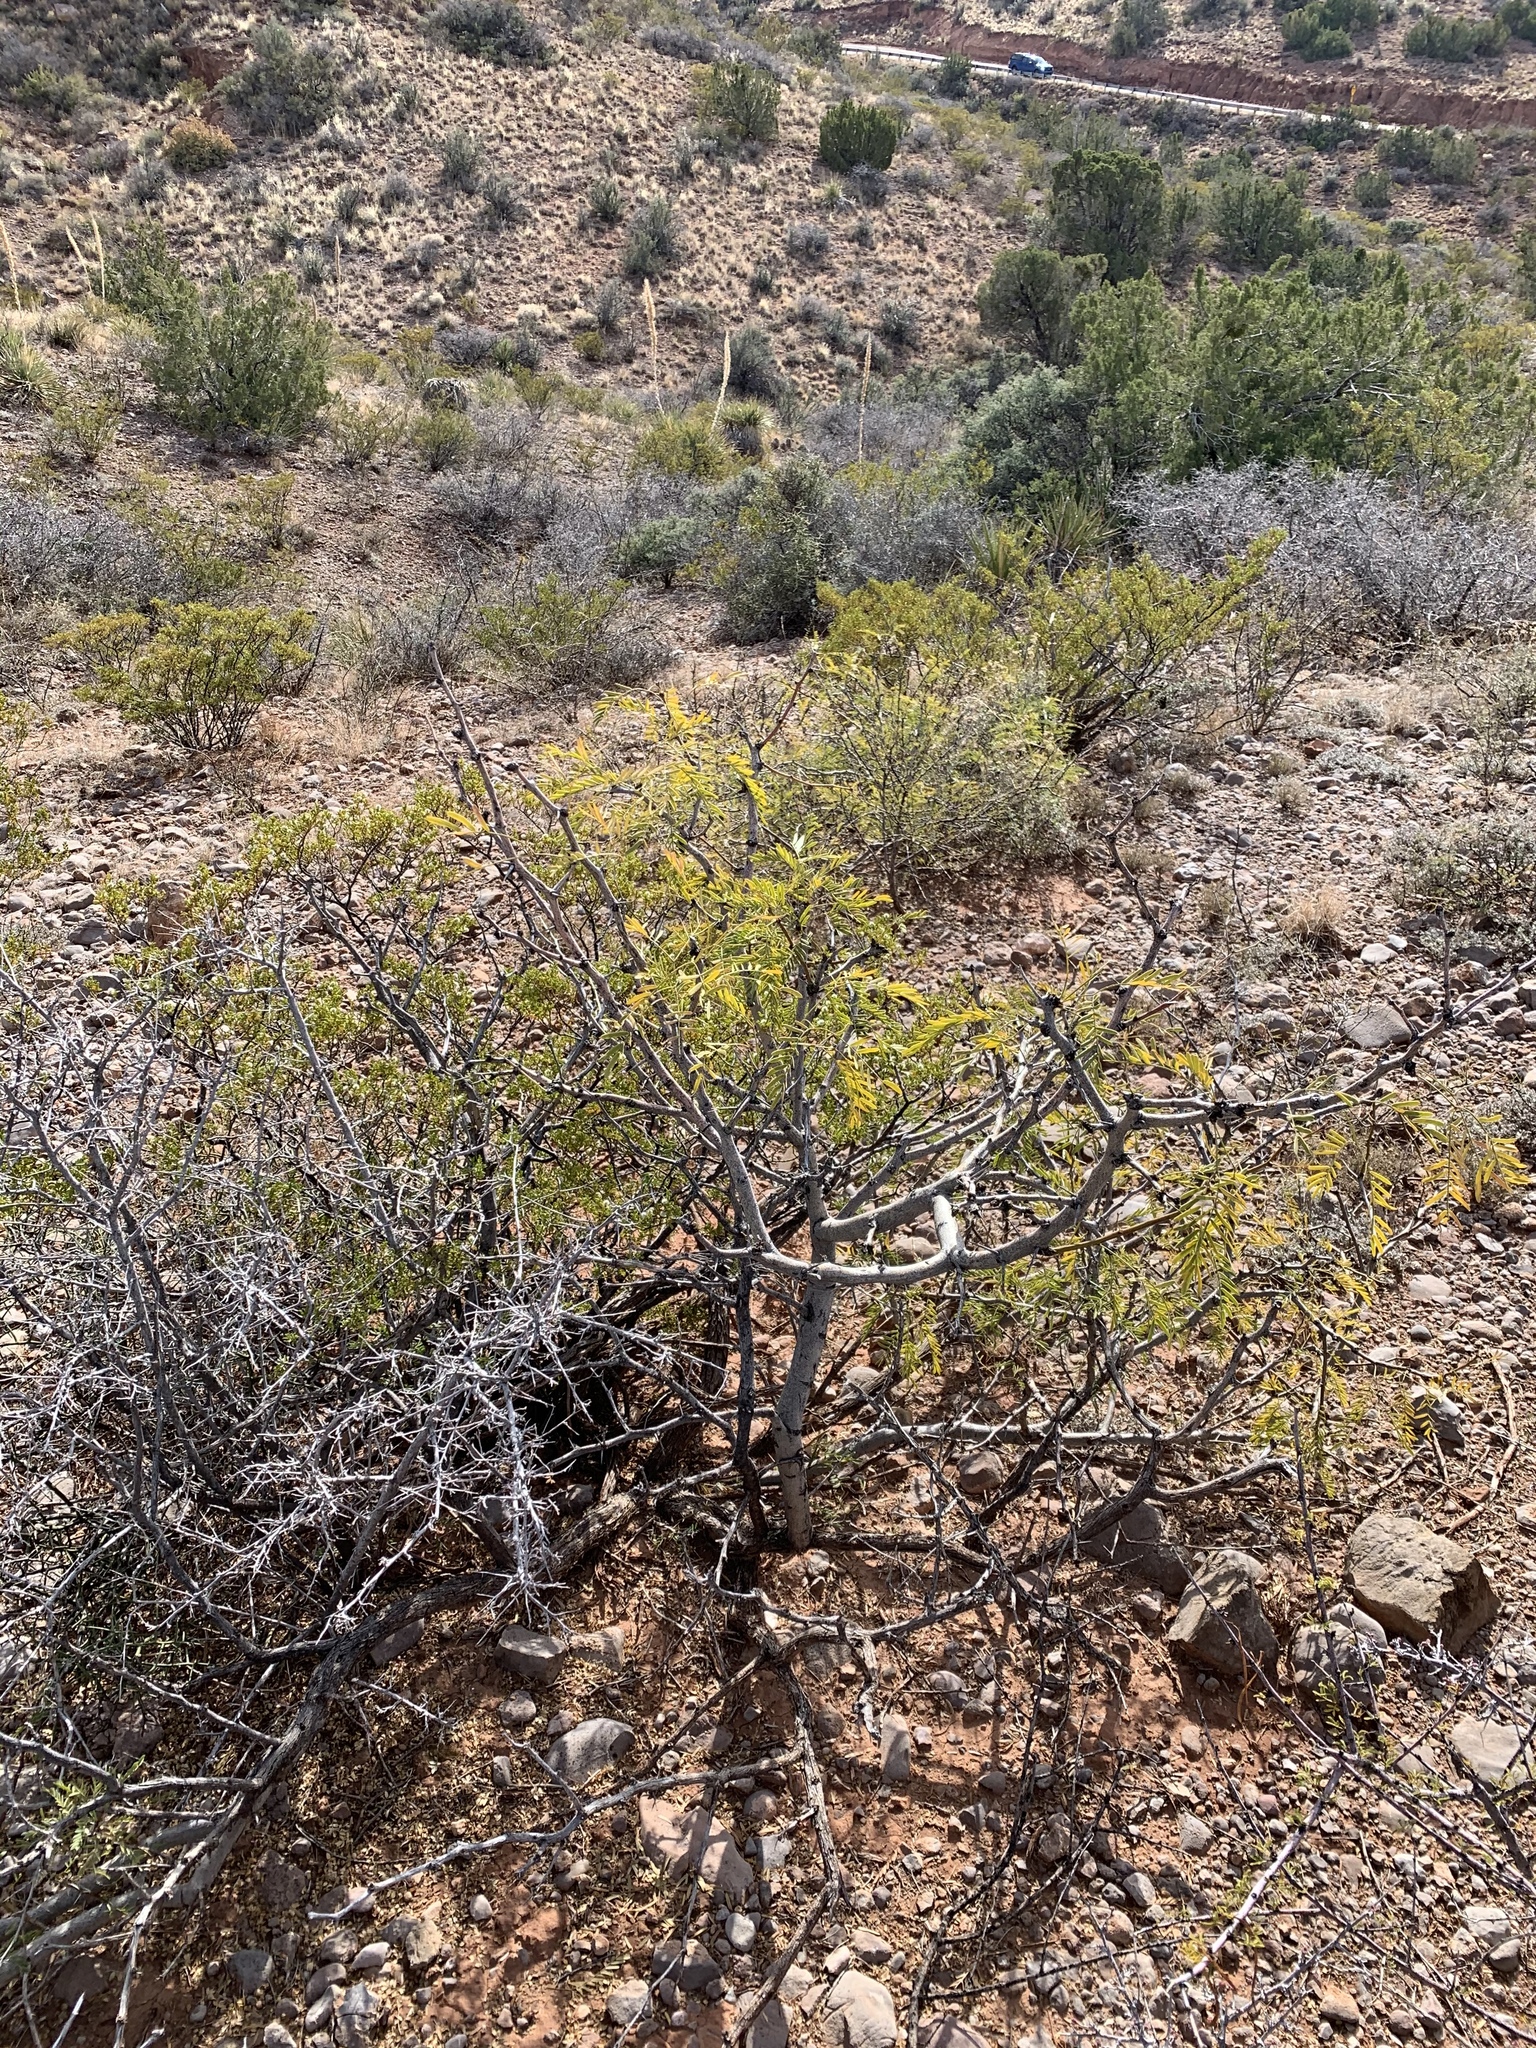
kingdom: Plantae
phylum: Tracheophyta
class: Magnoliopsida
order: Fabales
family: Fabaceae
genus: Prosopis
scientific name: Prosopis glandulosa
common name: Honey mesquite
